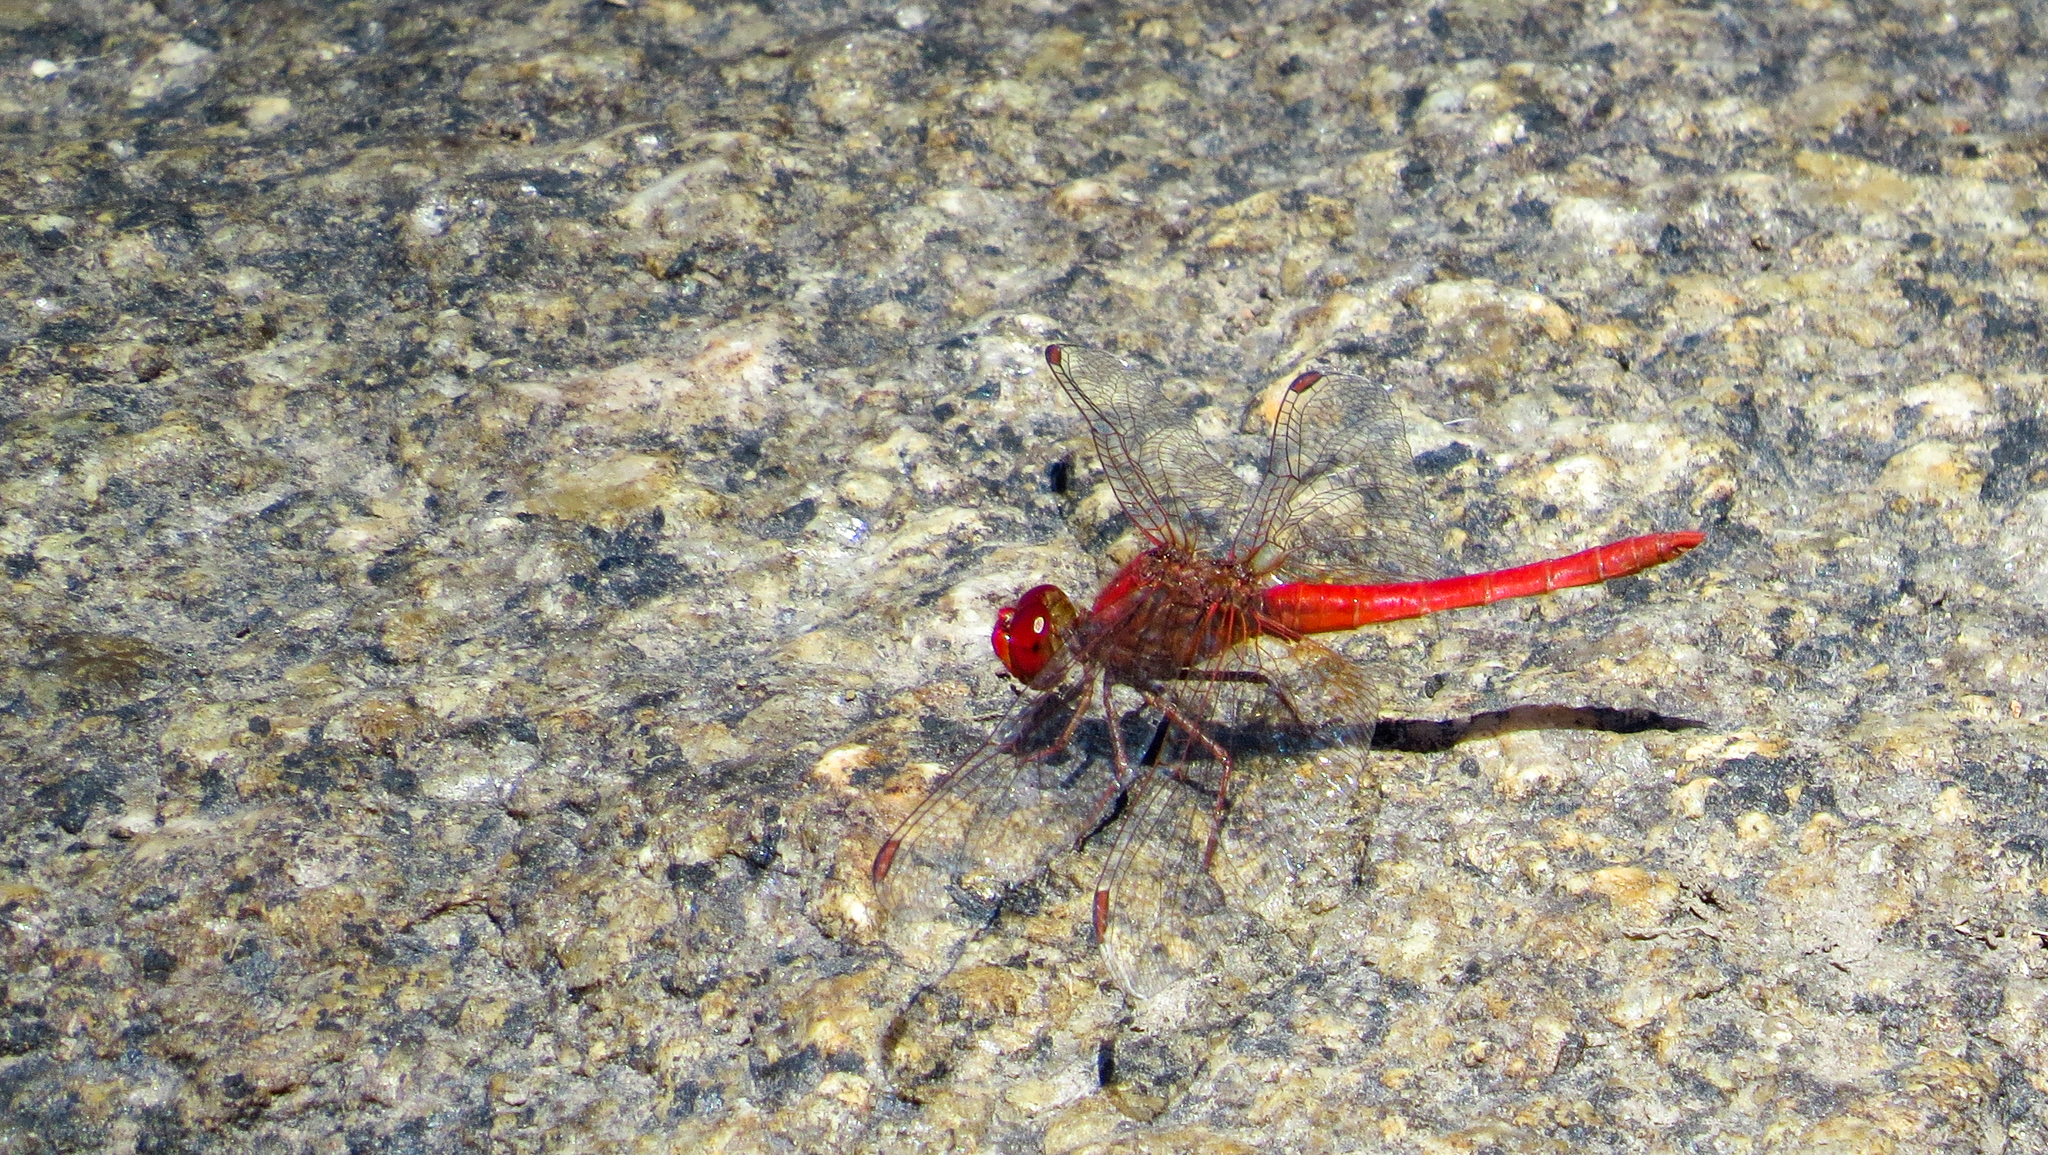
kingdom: Animalia
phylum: Arthropoda
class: Insecta
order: Odonata
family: Libellulidae
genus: Diplacodes
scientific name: Diplacodes haematodes
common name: Scarlet percher
